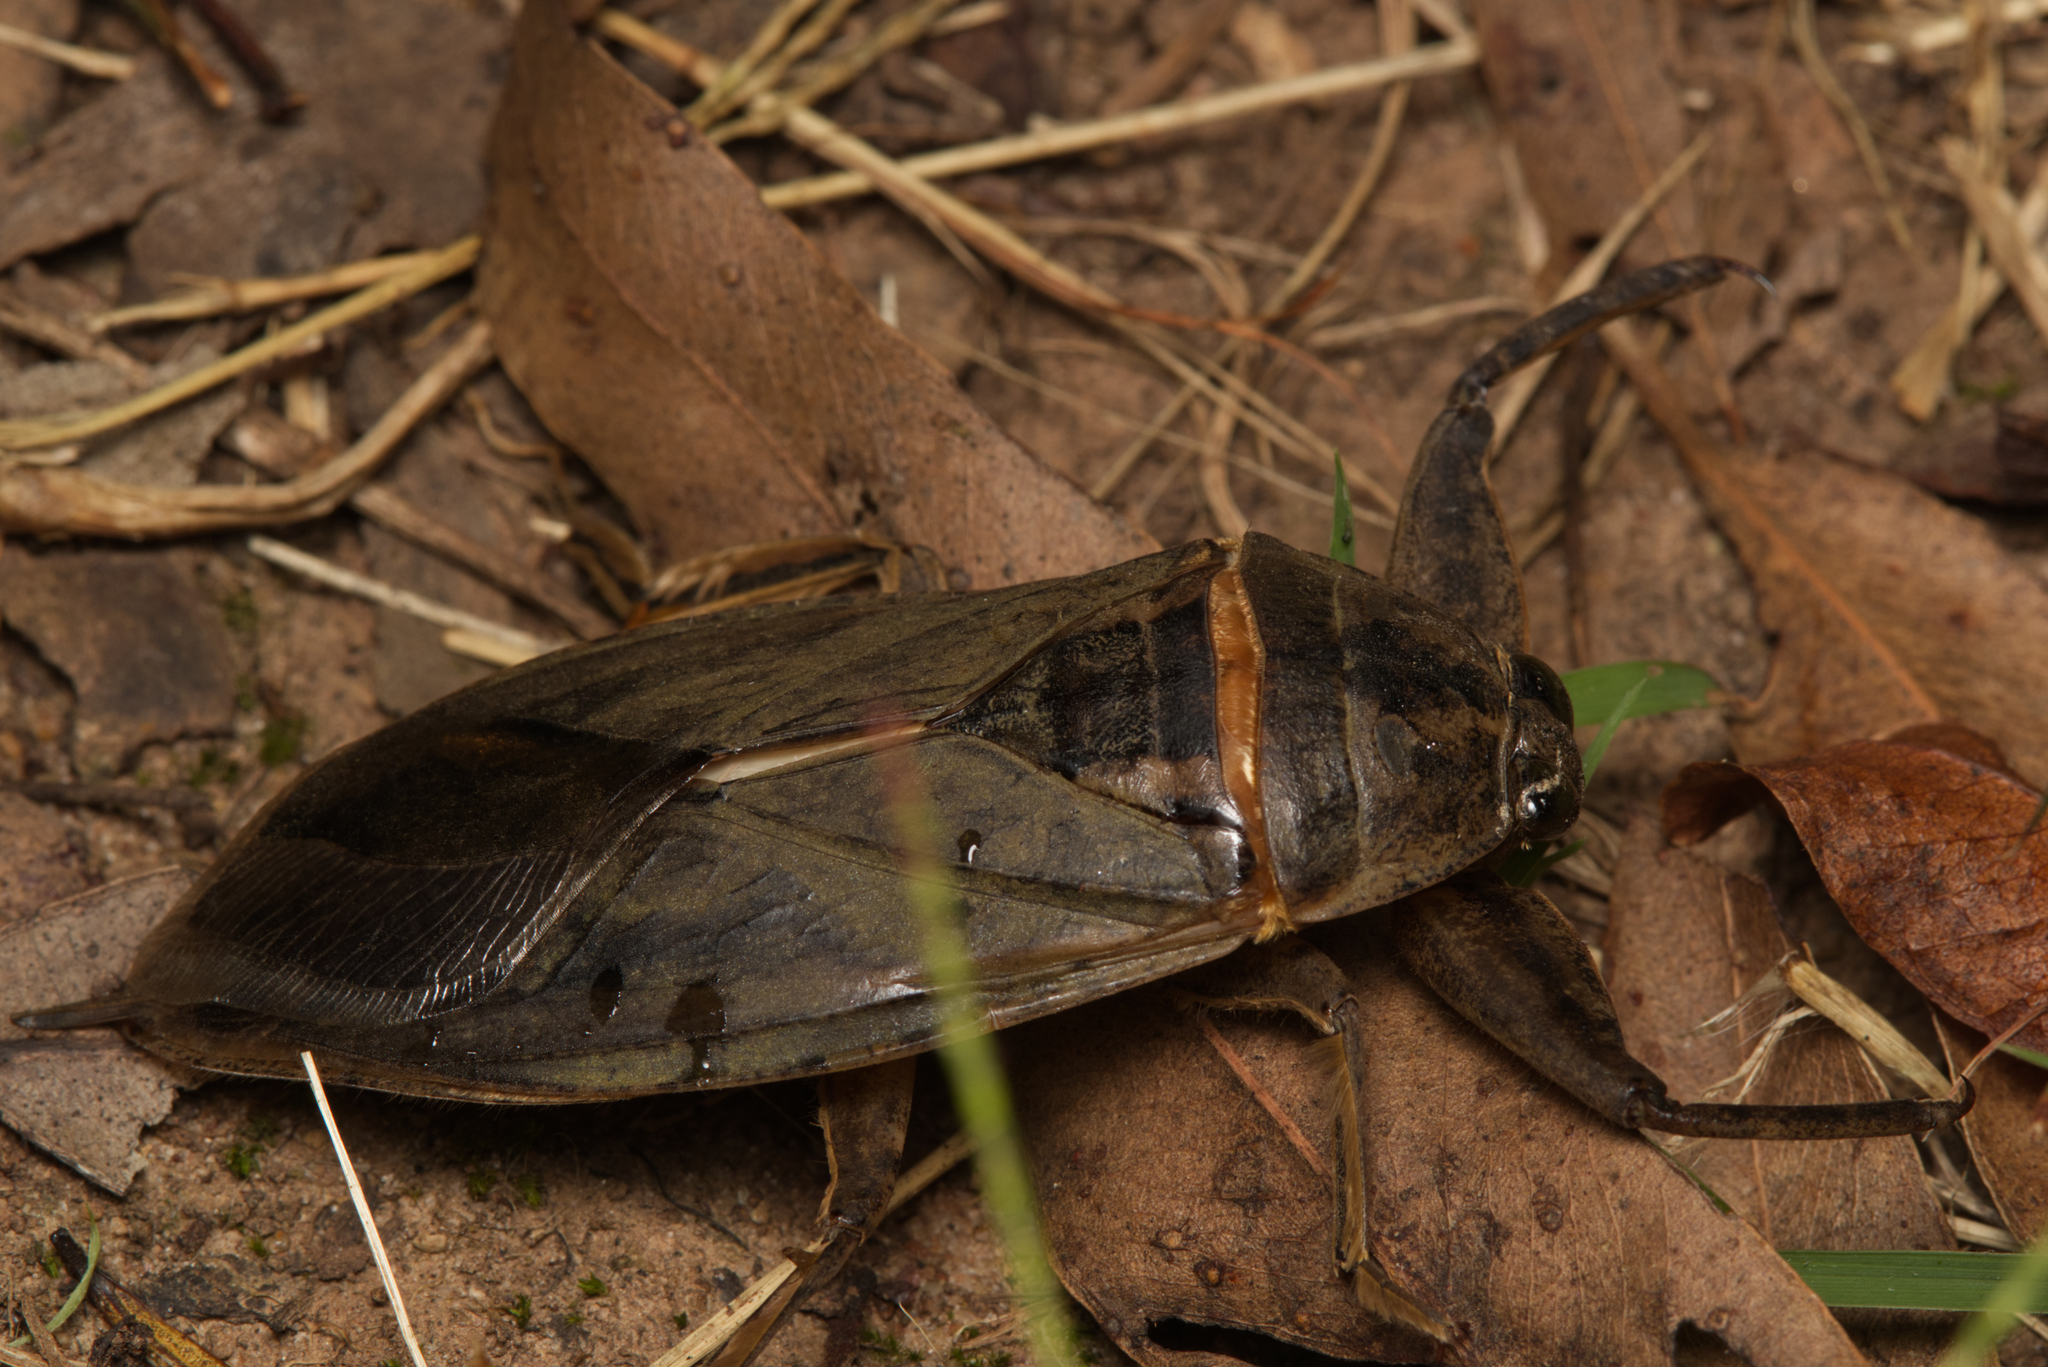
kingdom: Animalia
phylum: Arthropoda
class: Insecta
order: Hemiptera
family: Belostomatidae
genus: Lethocerus
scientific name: Lethocerus insulanus
